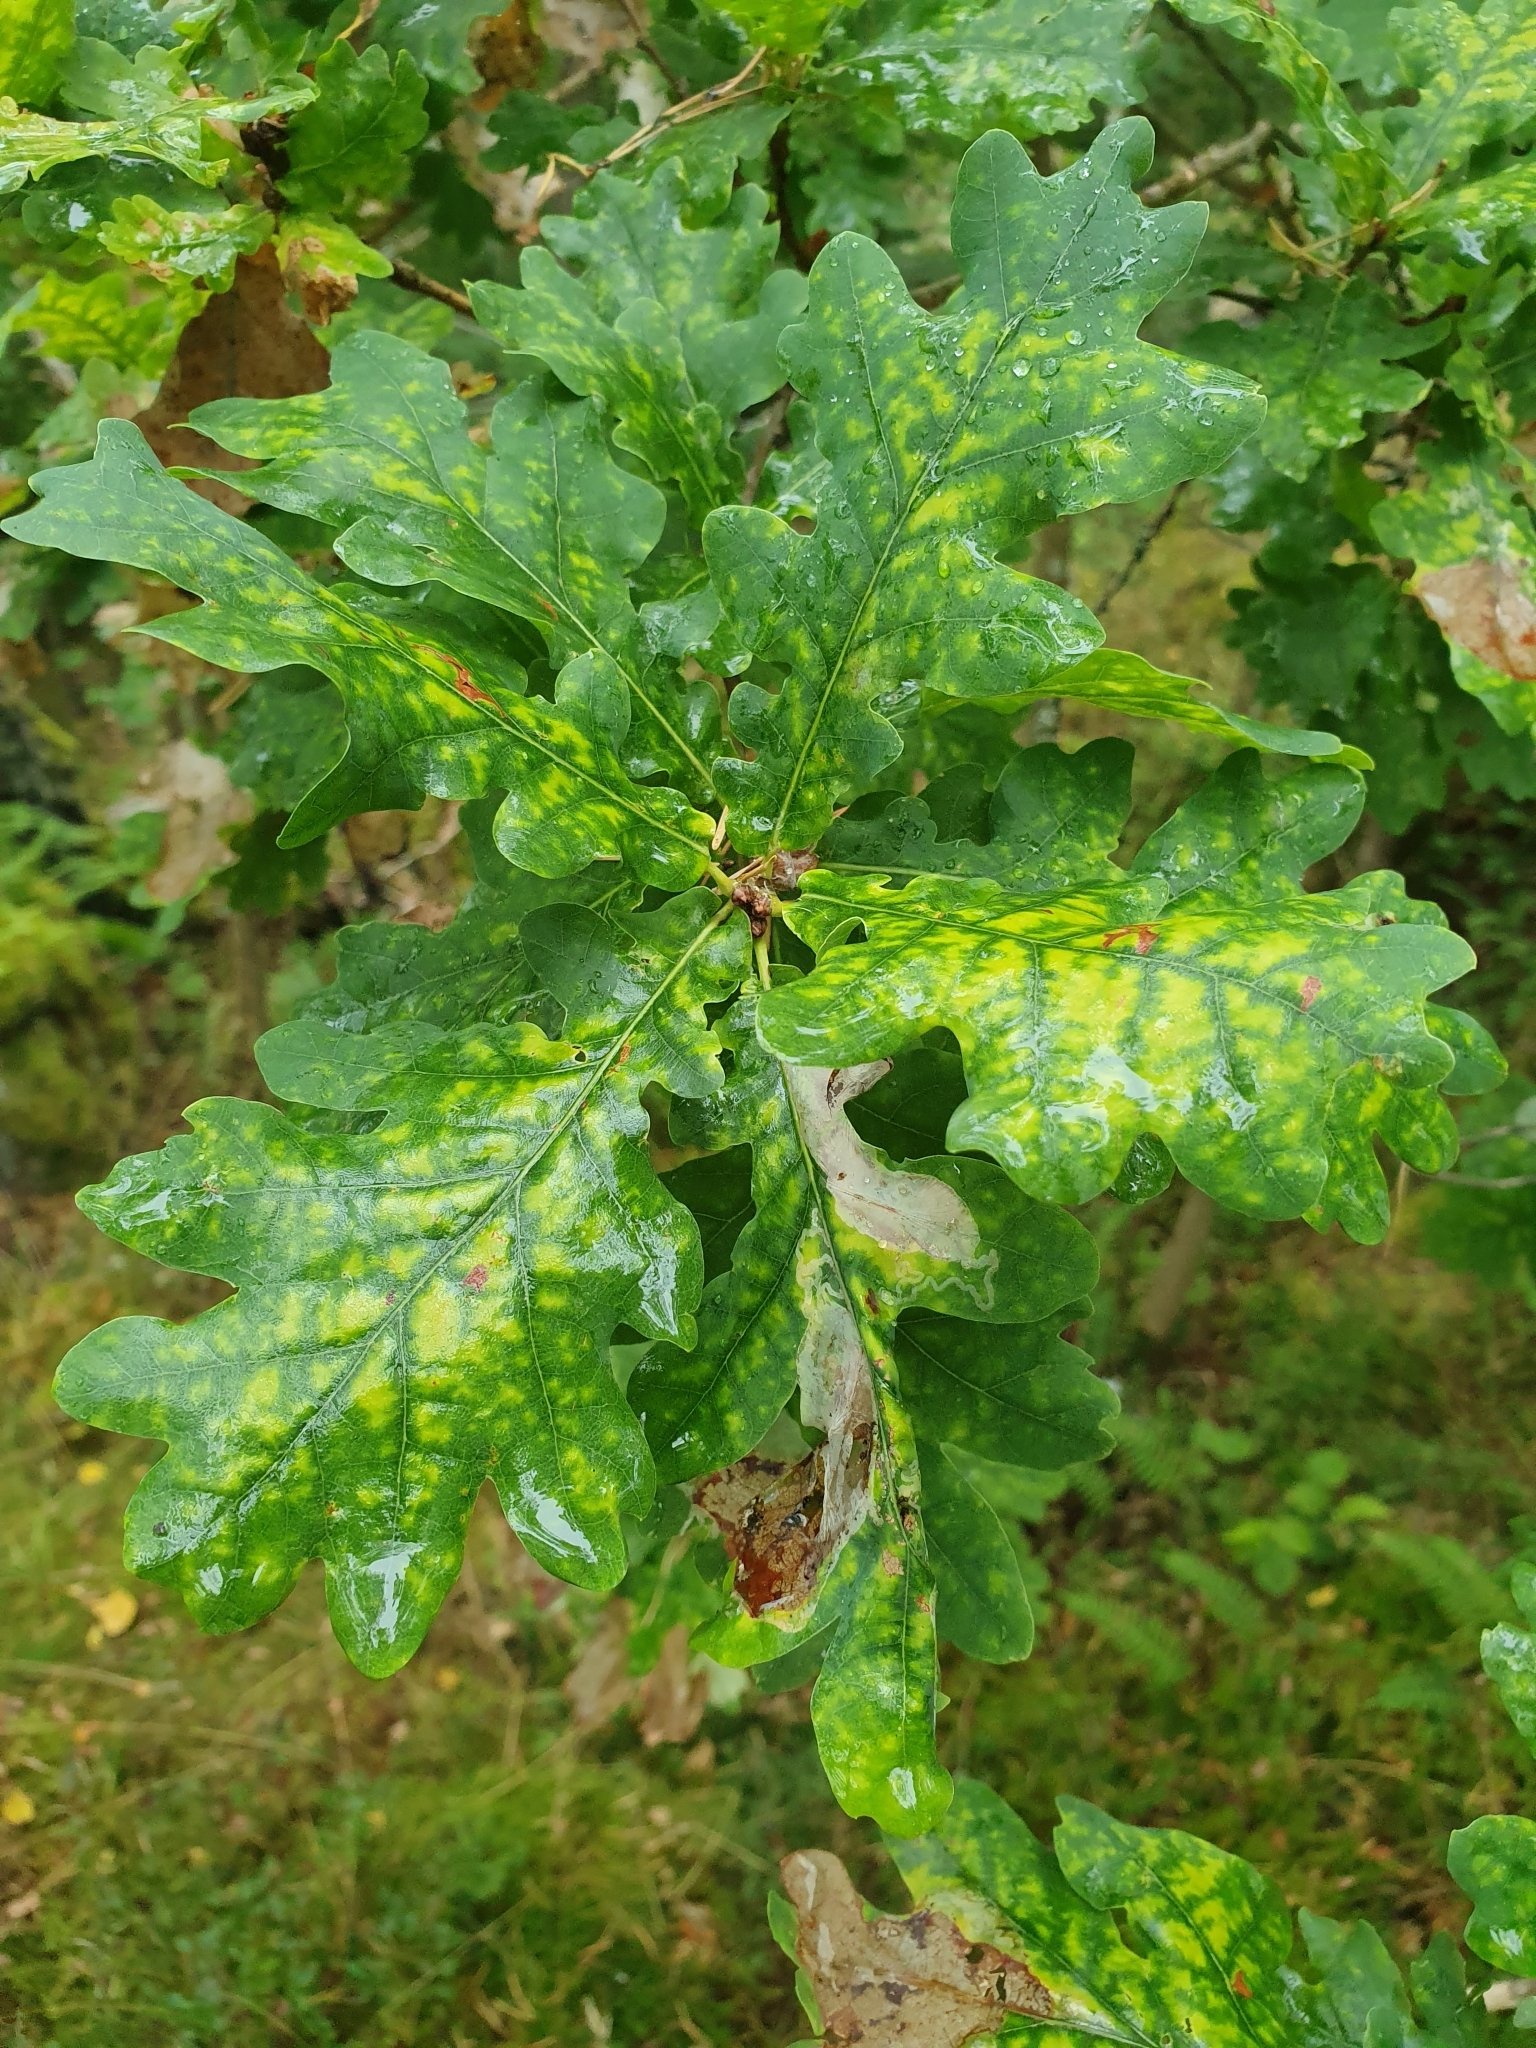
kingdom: Plantae
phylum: Tracheophyta
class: Magnoliopsida
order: Fagales
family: Fagaceae
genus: Quercus
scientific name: Quercus robur
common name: Pedunculate oak
